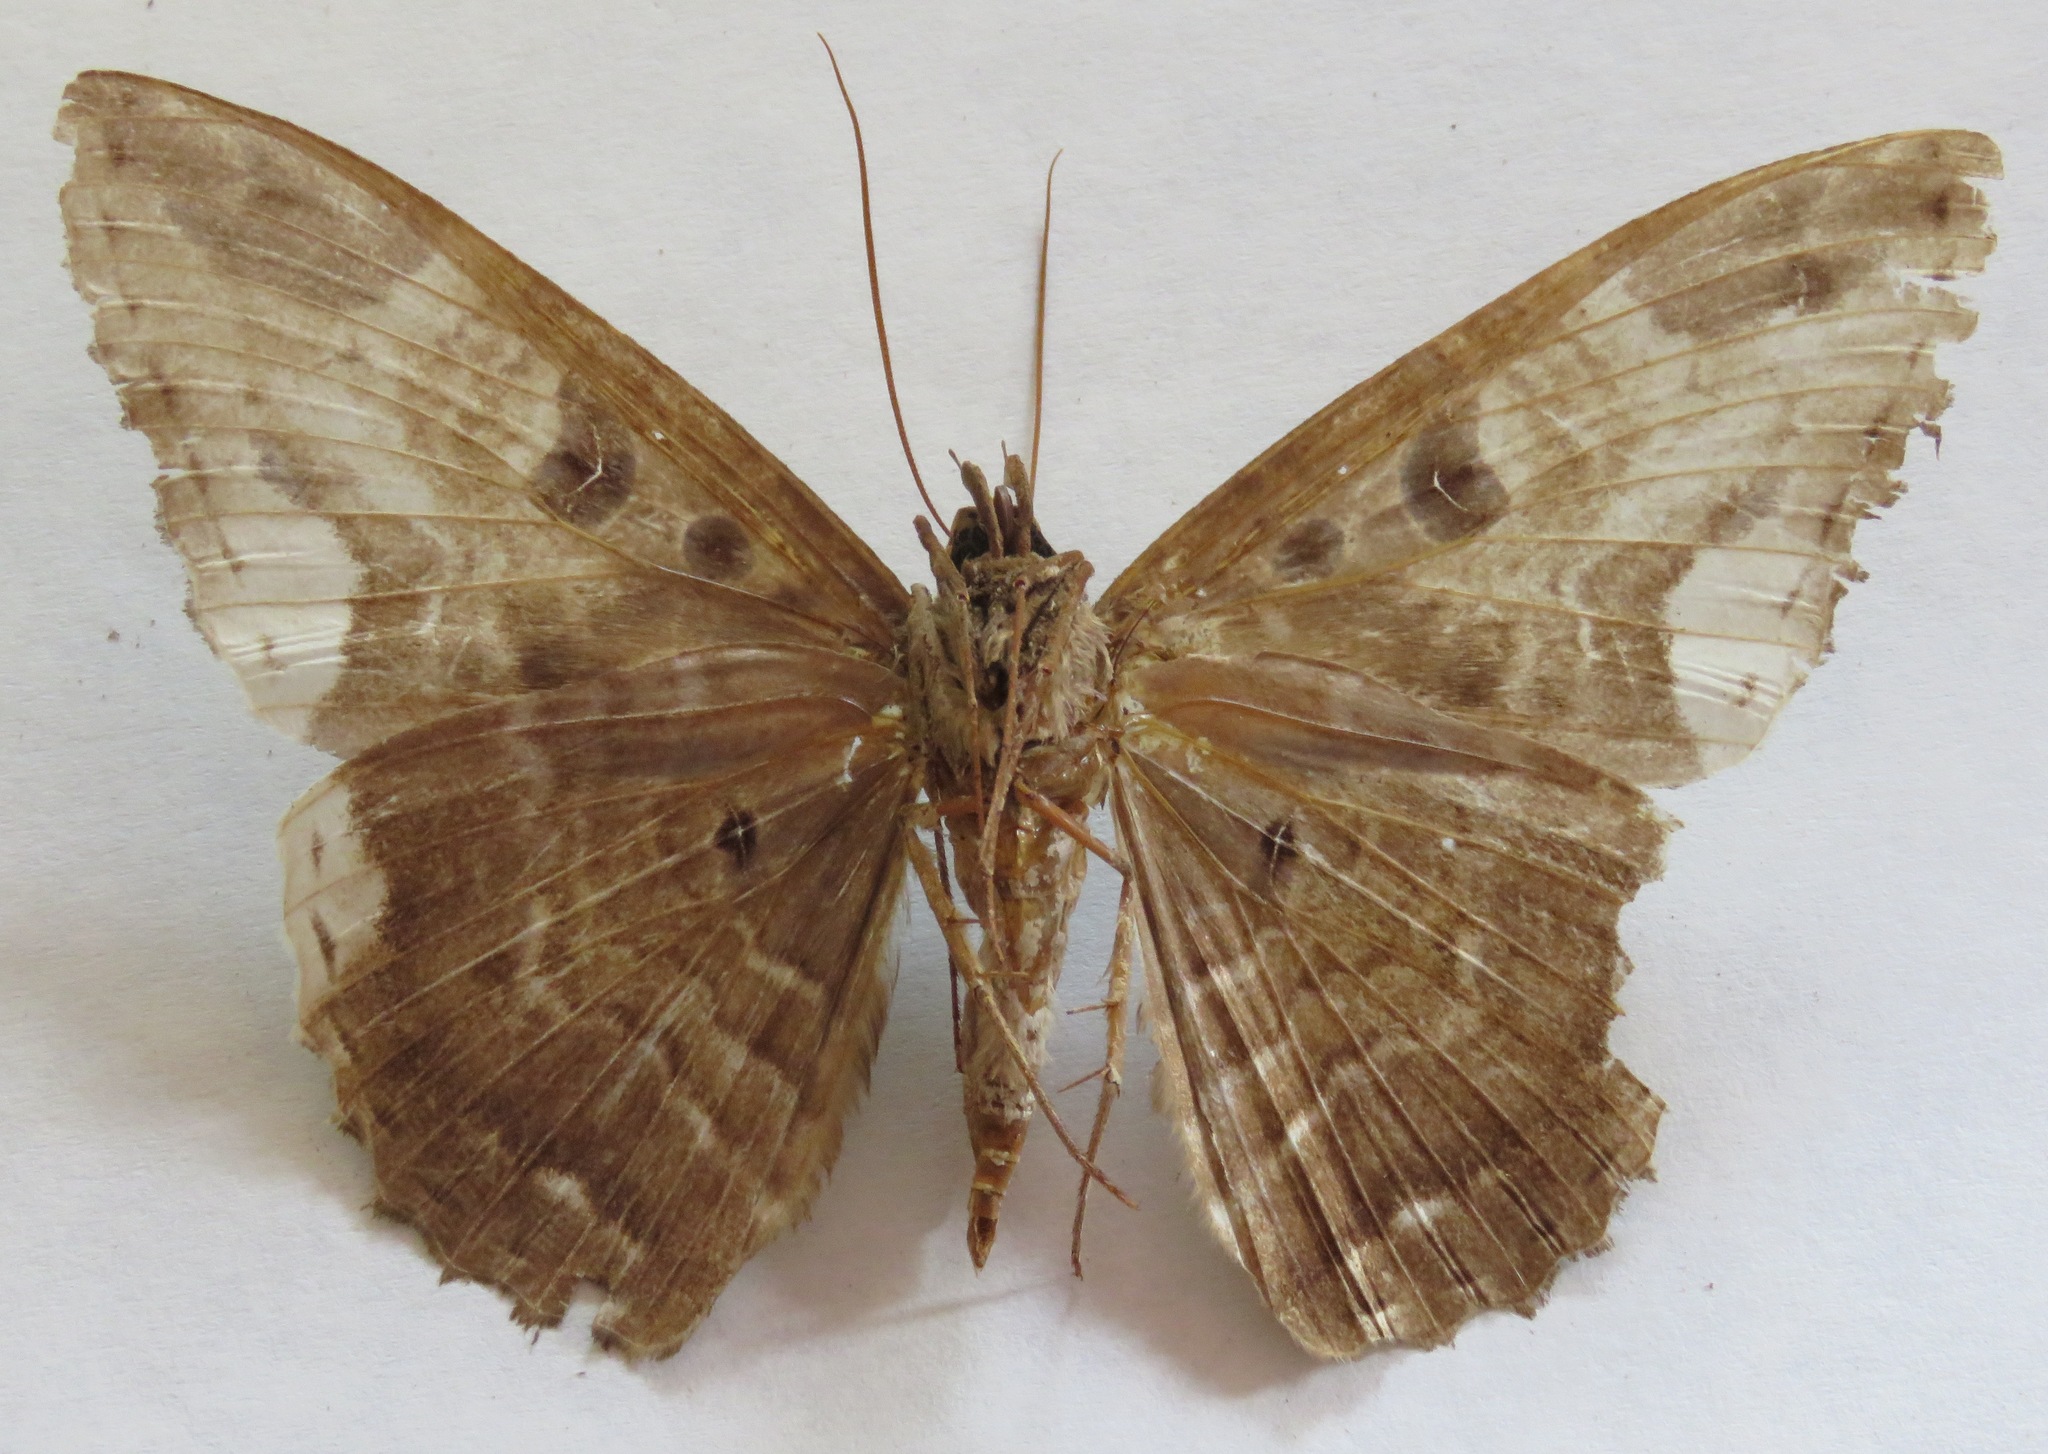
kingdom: Animalia
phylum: Arthropoda
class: Insecta
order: Lepidoptera
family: Erebidae
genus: Feigeria
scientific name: Feigeria herilia
